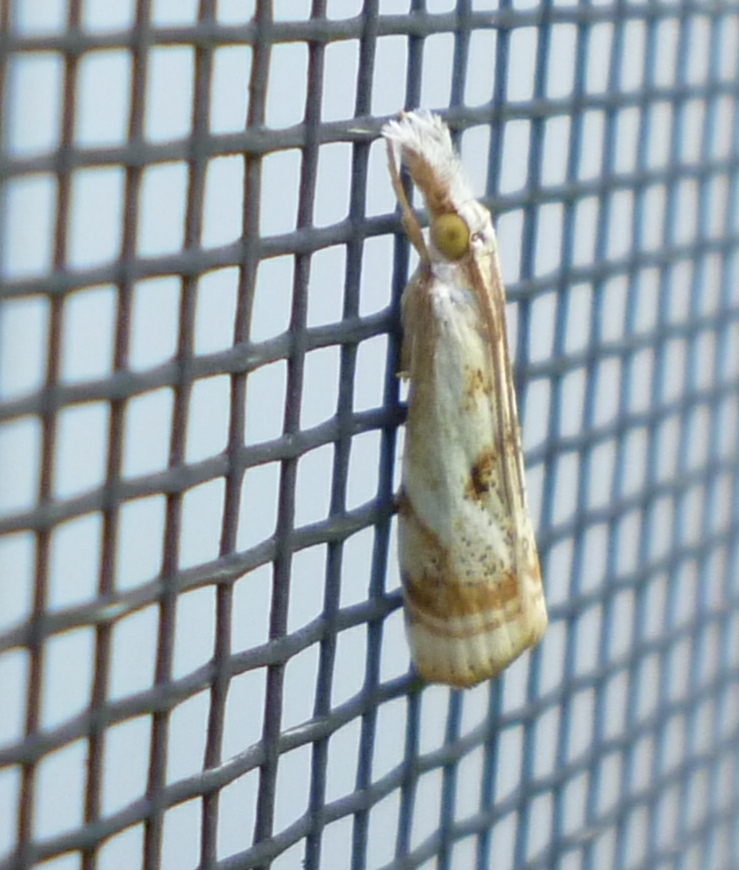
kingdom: Animalia
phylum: Arthropoda
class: Insecta
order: Lepidoptera
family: Crambidae
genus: Microcrambus
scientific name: Microcrambus elegans
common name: Elegant grass-veneer
